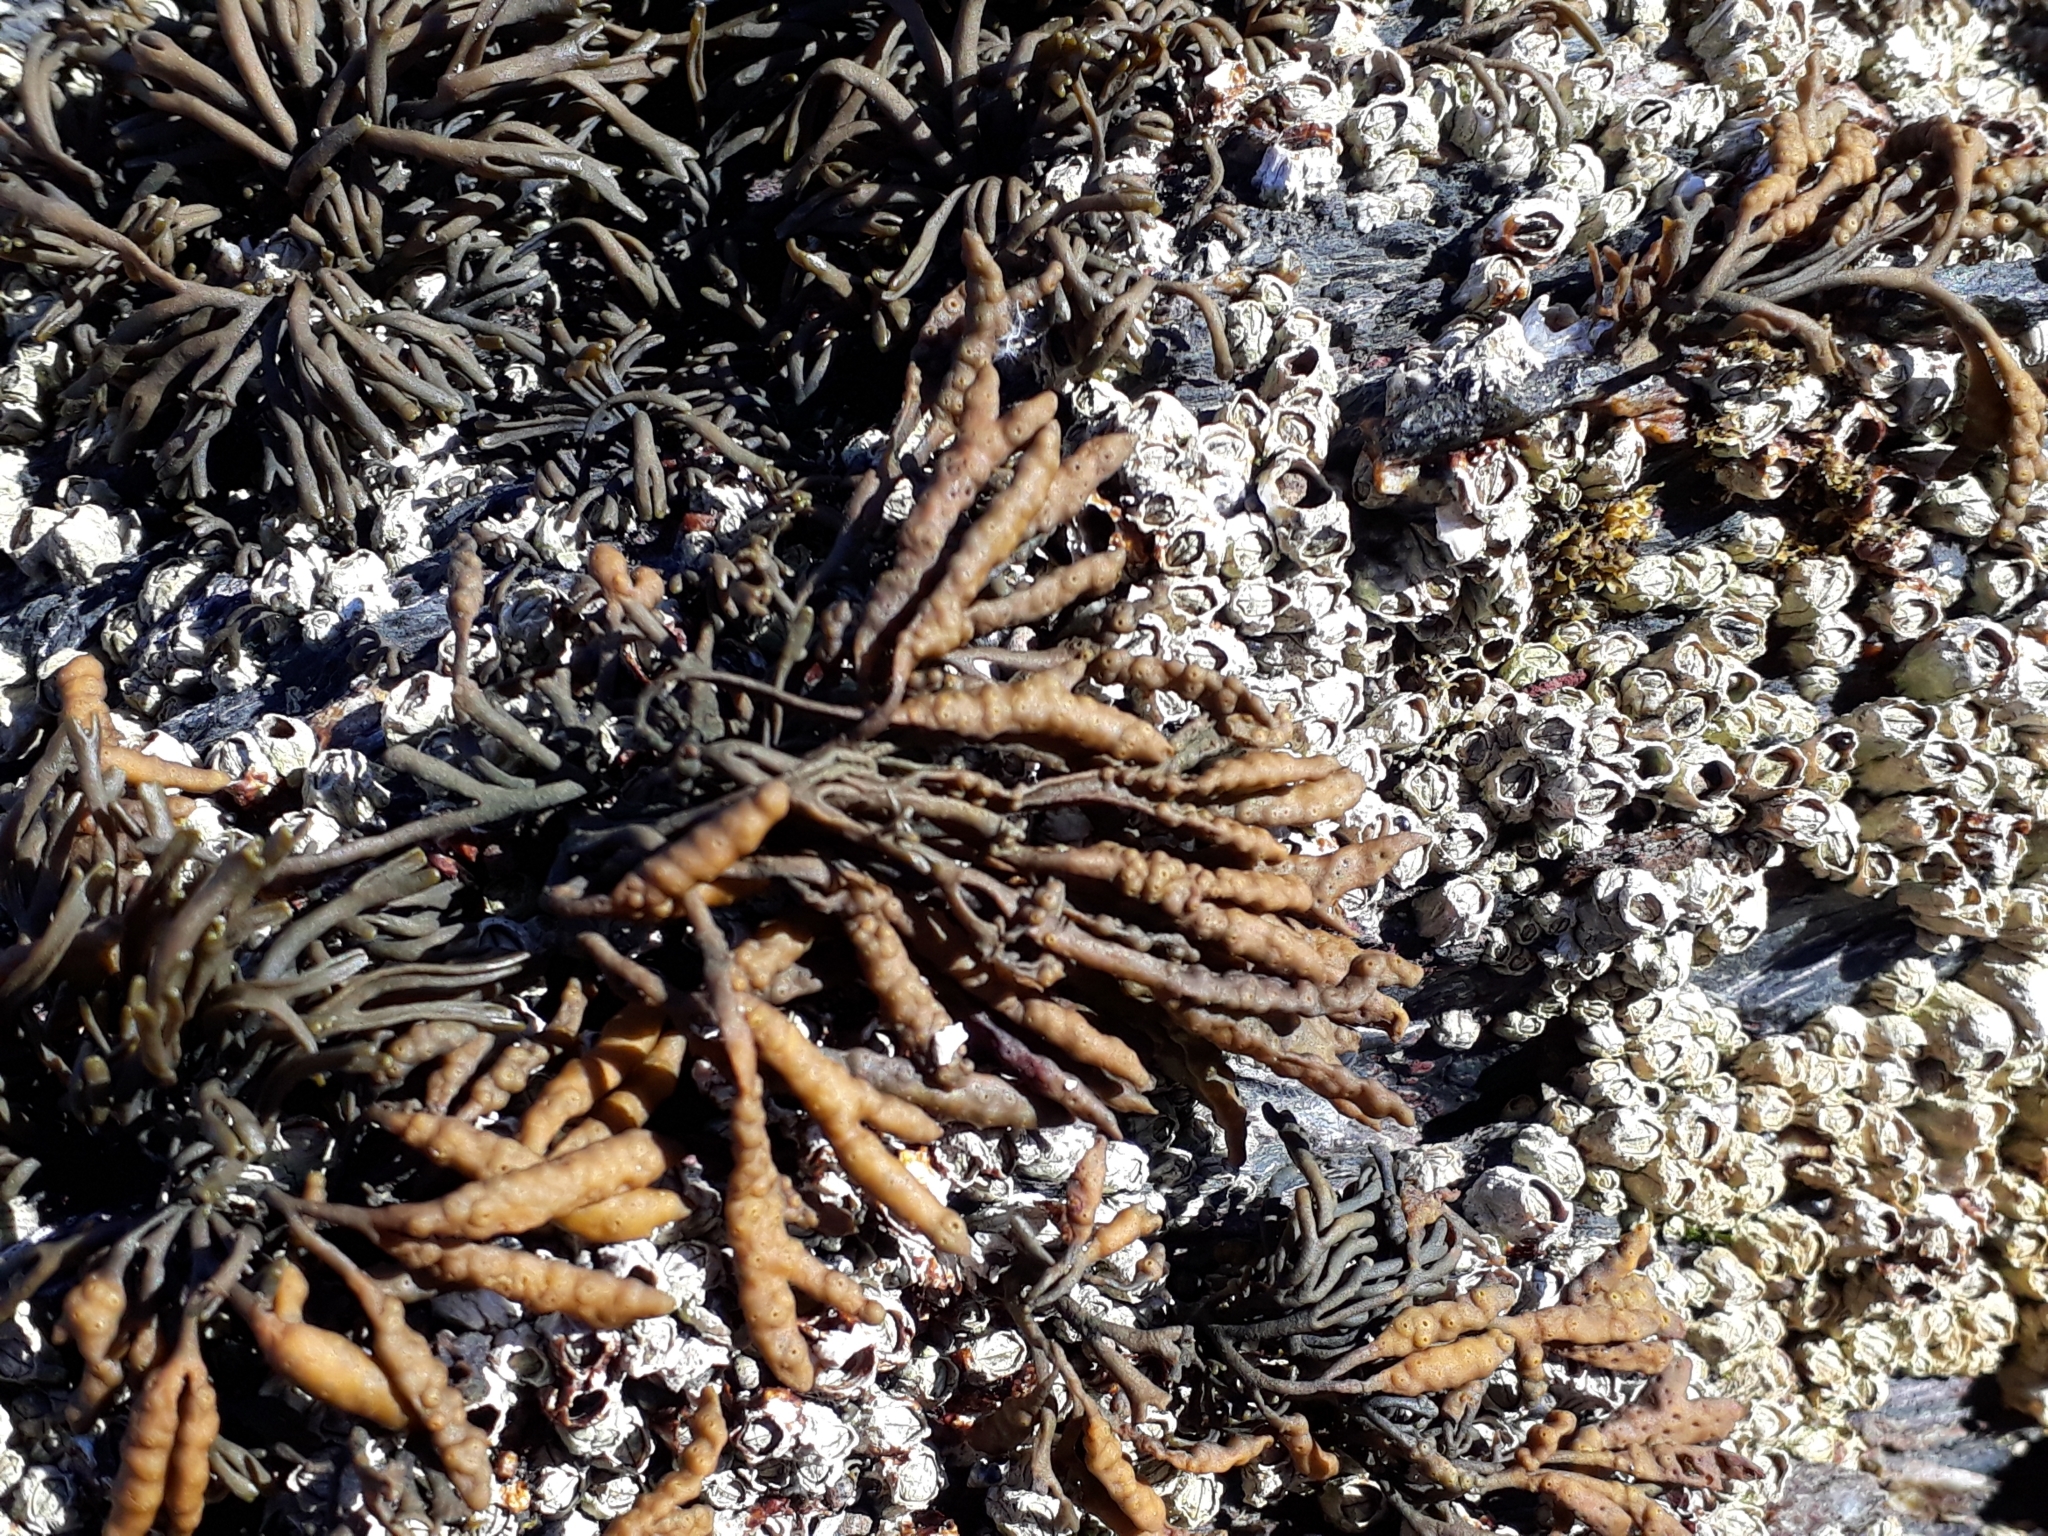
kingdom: Chromista
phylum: Ochrophyta
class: Phaeophyceae
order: Fucales
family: Fucaceae
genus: Pelvetia
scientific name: Pelvetia canaliculata
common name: Channelled wrack
